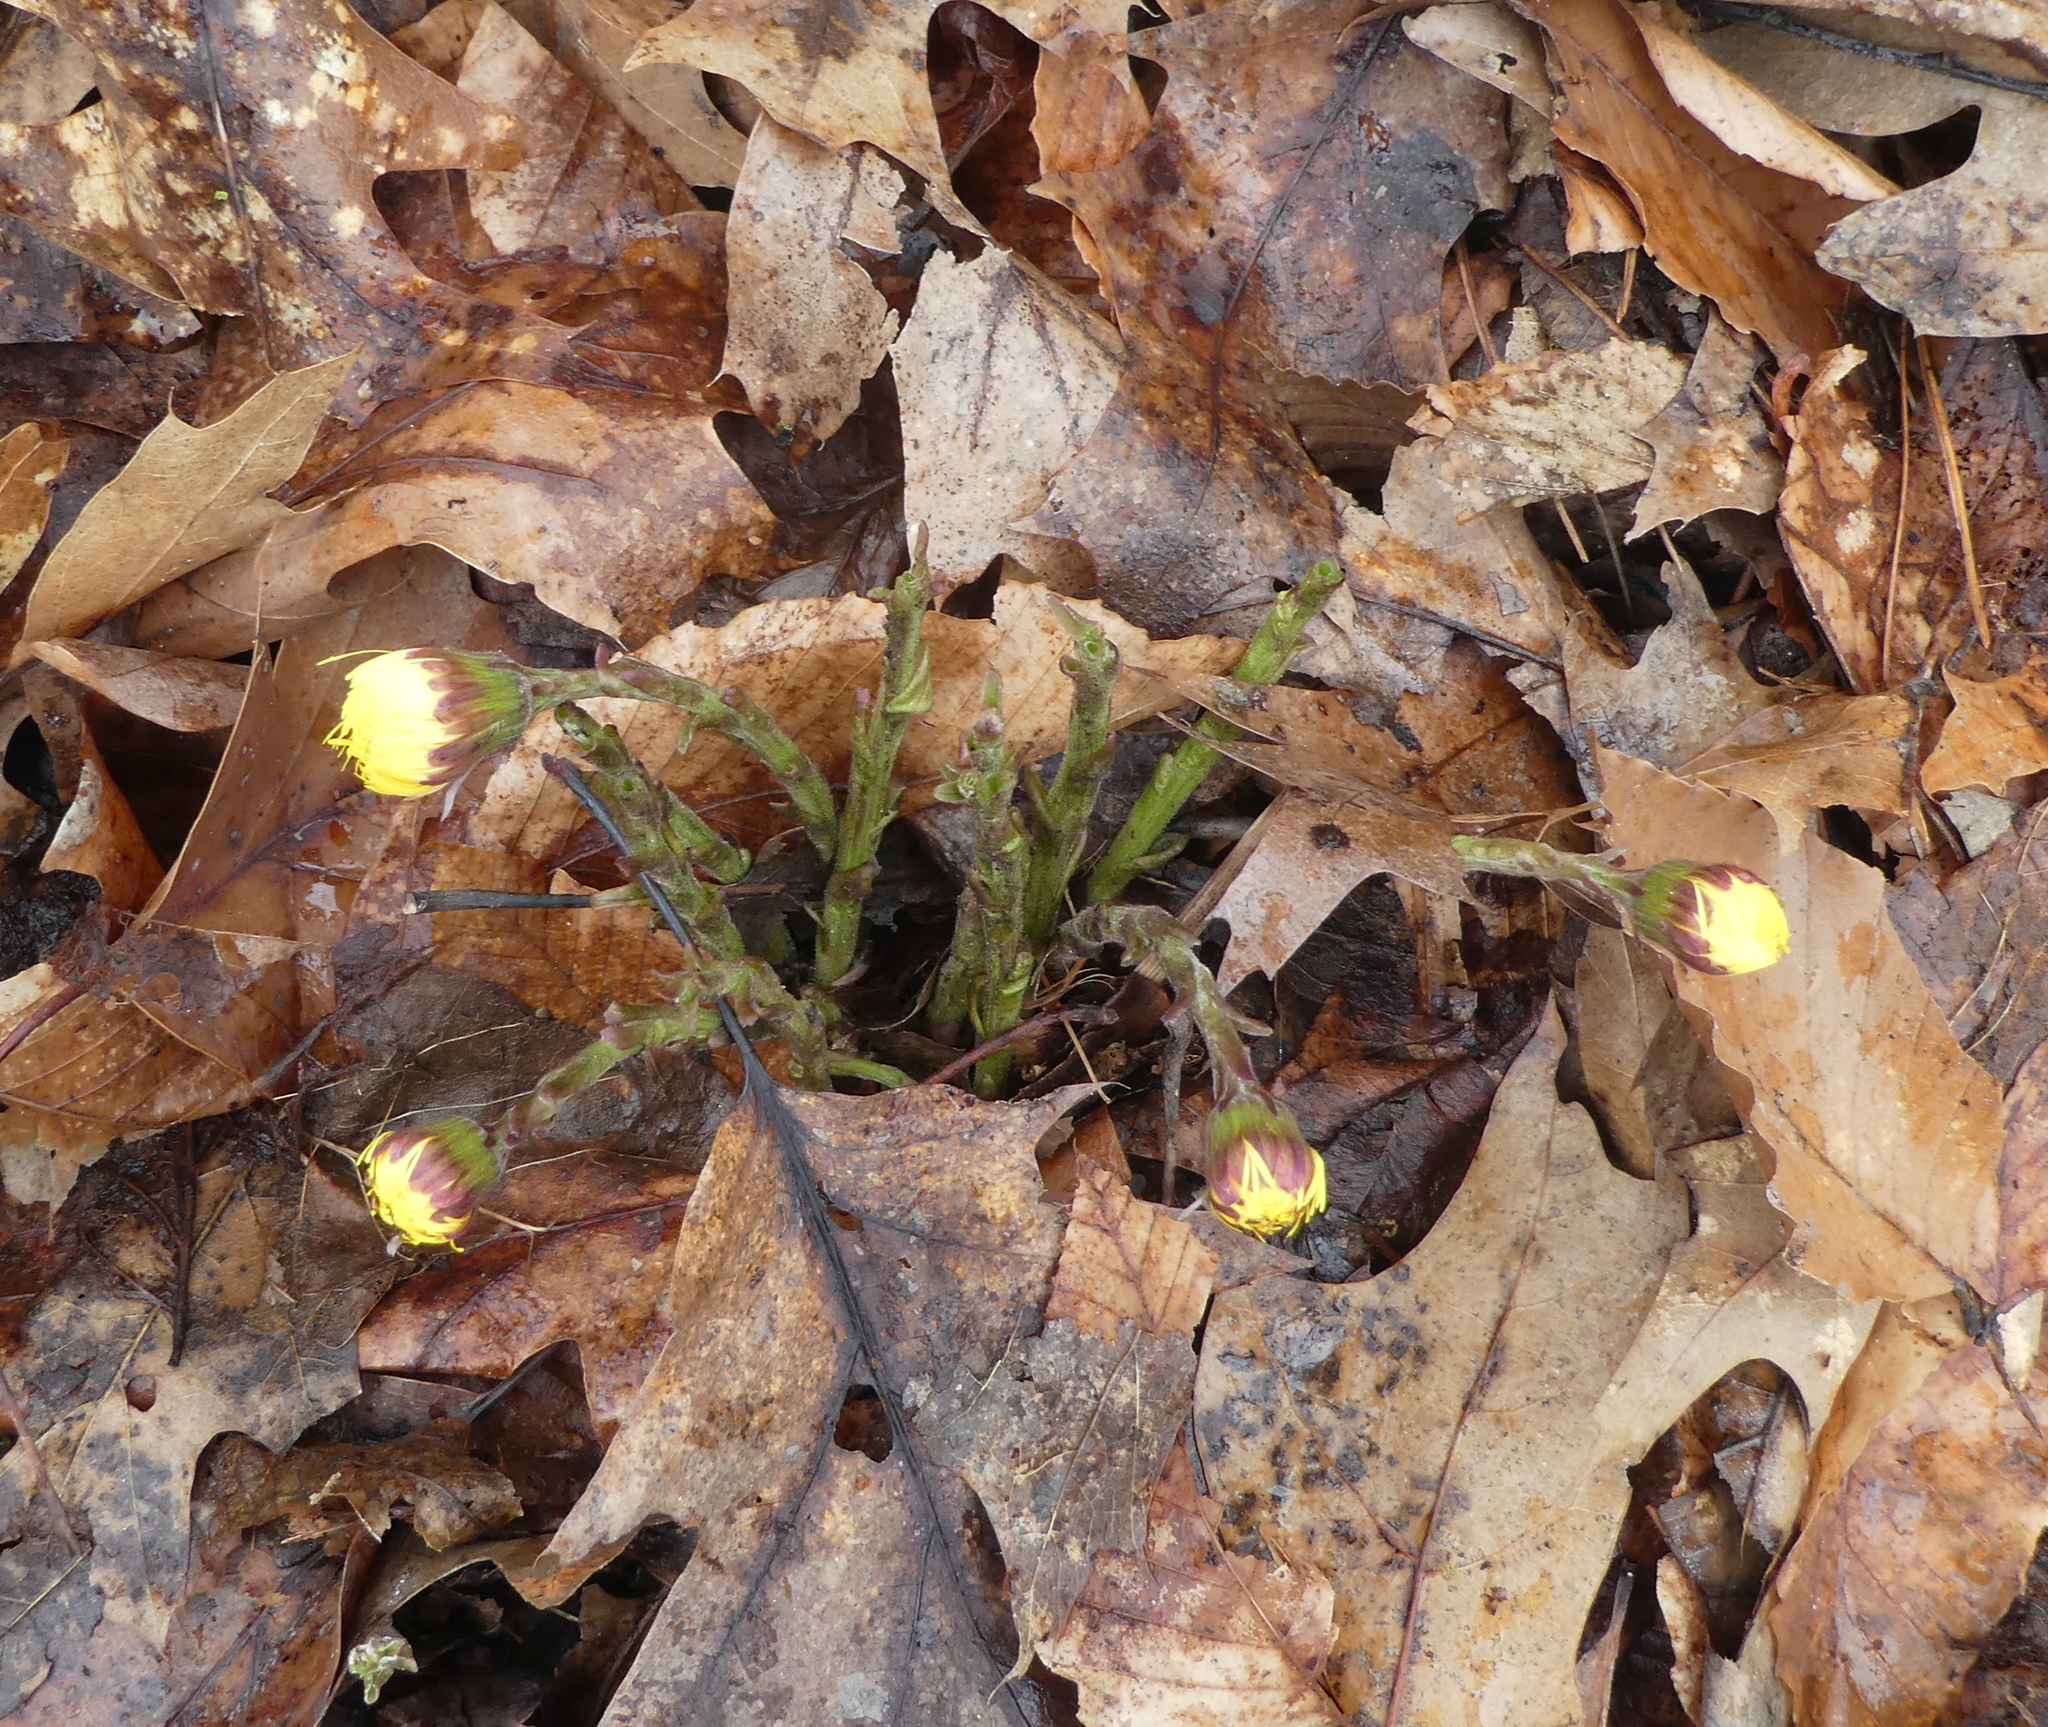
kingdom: Plantae
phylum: Tracheophyta
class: Magnoliopsida
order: Asterales
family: Asteraceae
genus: Tussilago
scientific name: Tussilago farfara
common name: Coltsfoot
